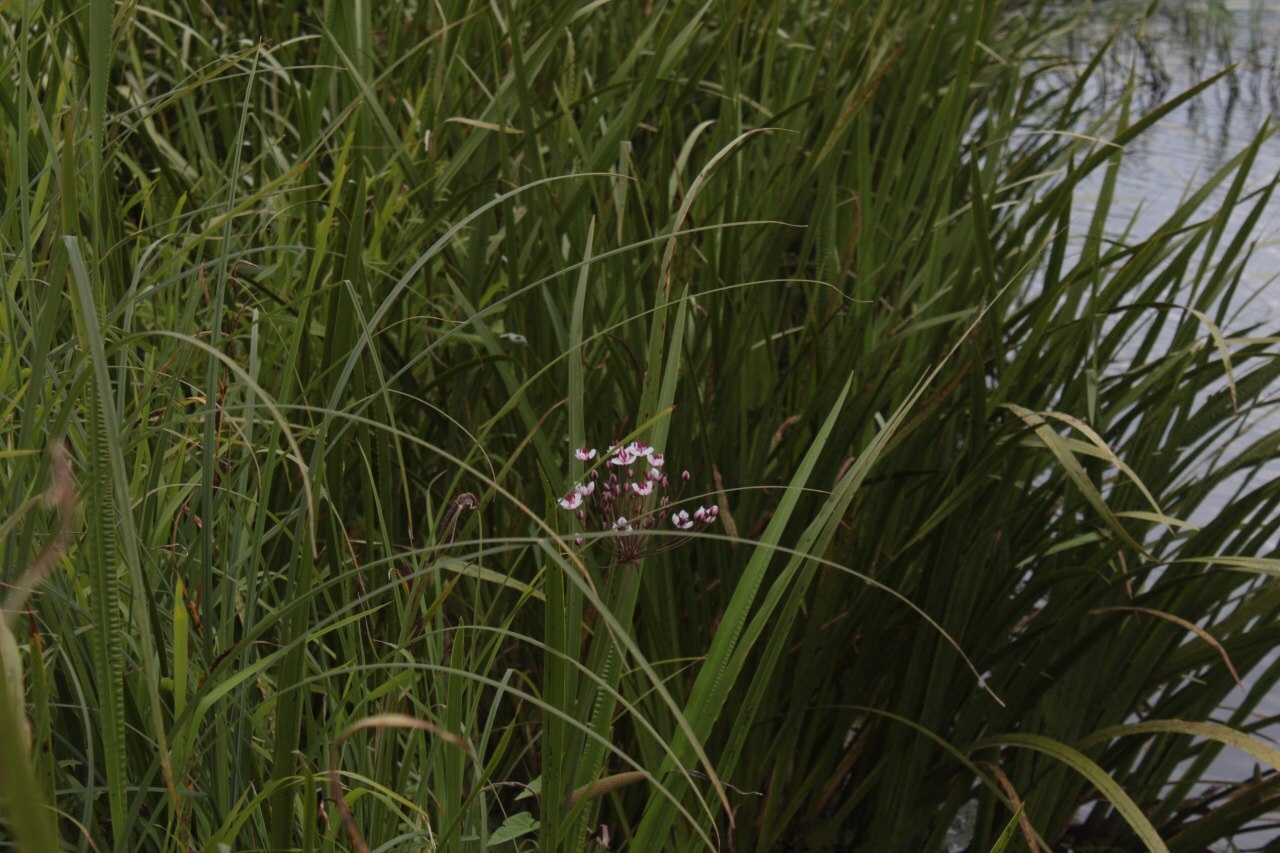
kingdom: Plantae
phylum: Tracheophyta
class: Liliopsida
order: Alismatales
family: Butomaceae
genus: Butomus
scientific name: Butomus umbellatus
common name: Flowering-rush
